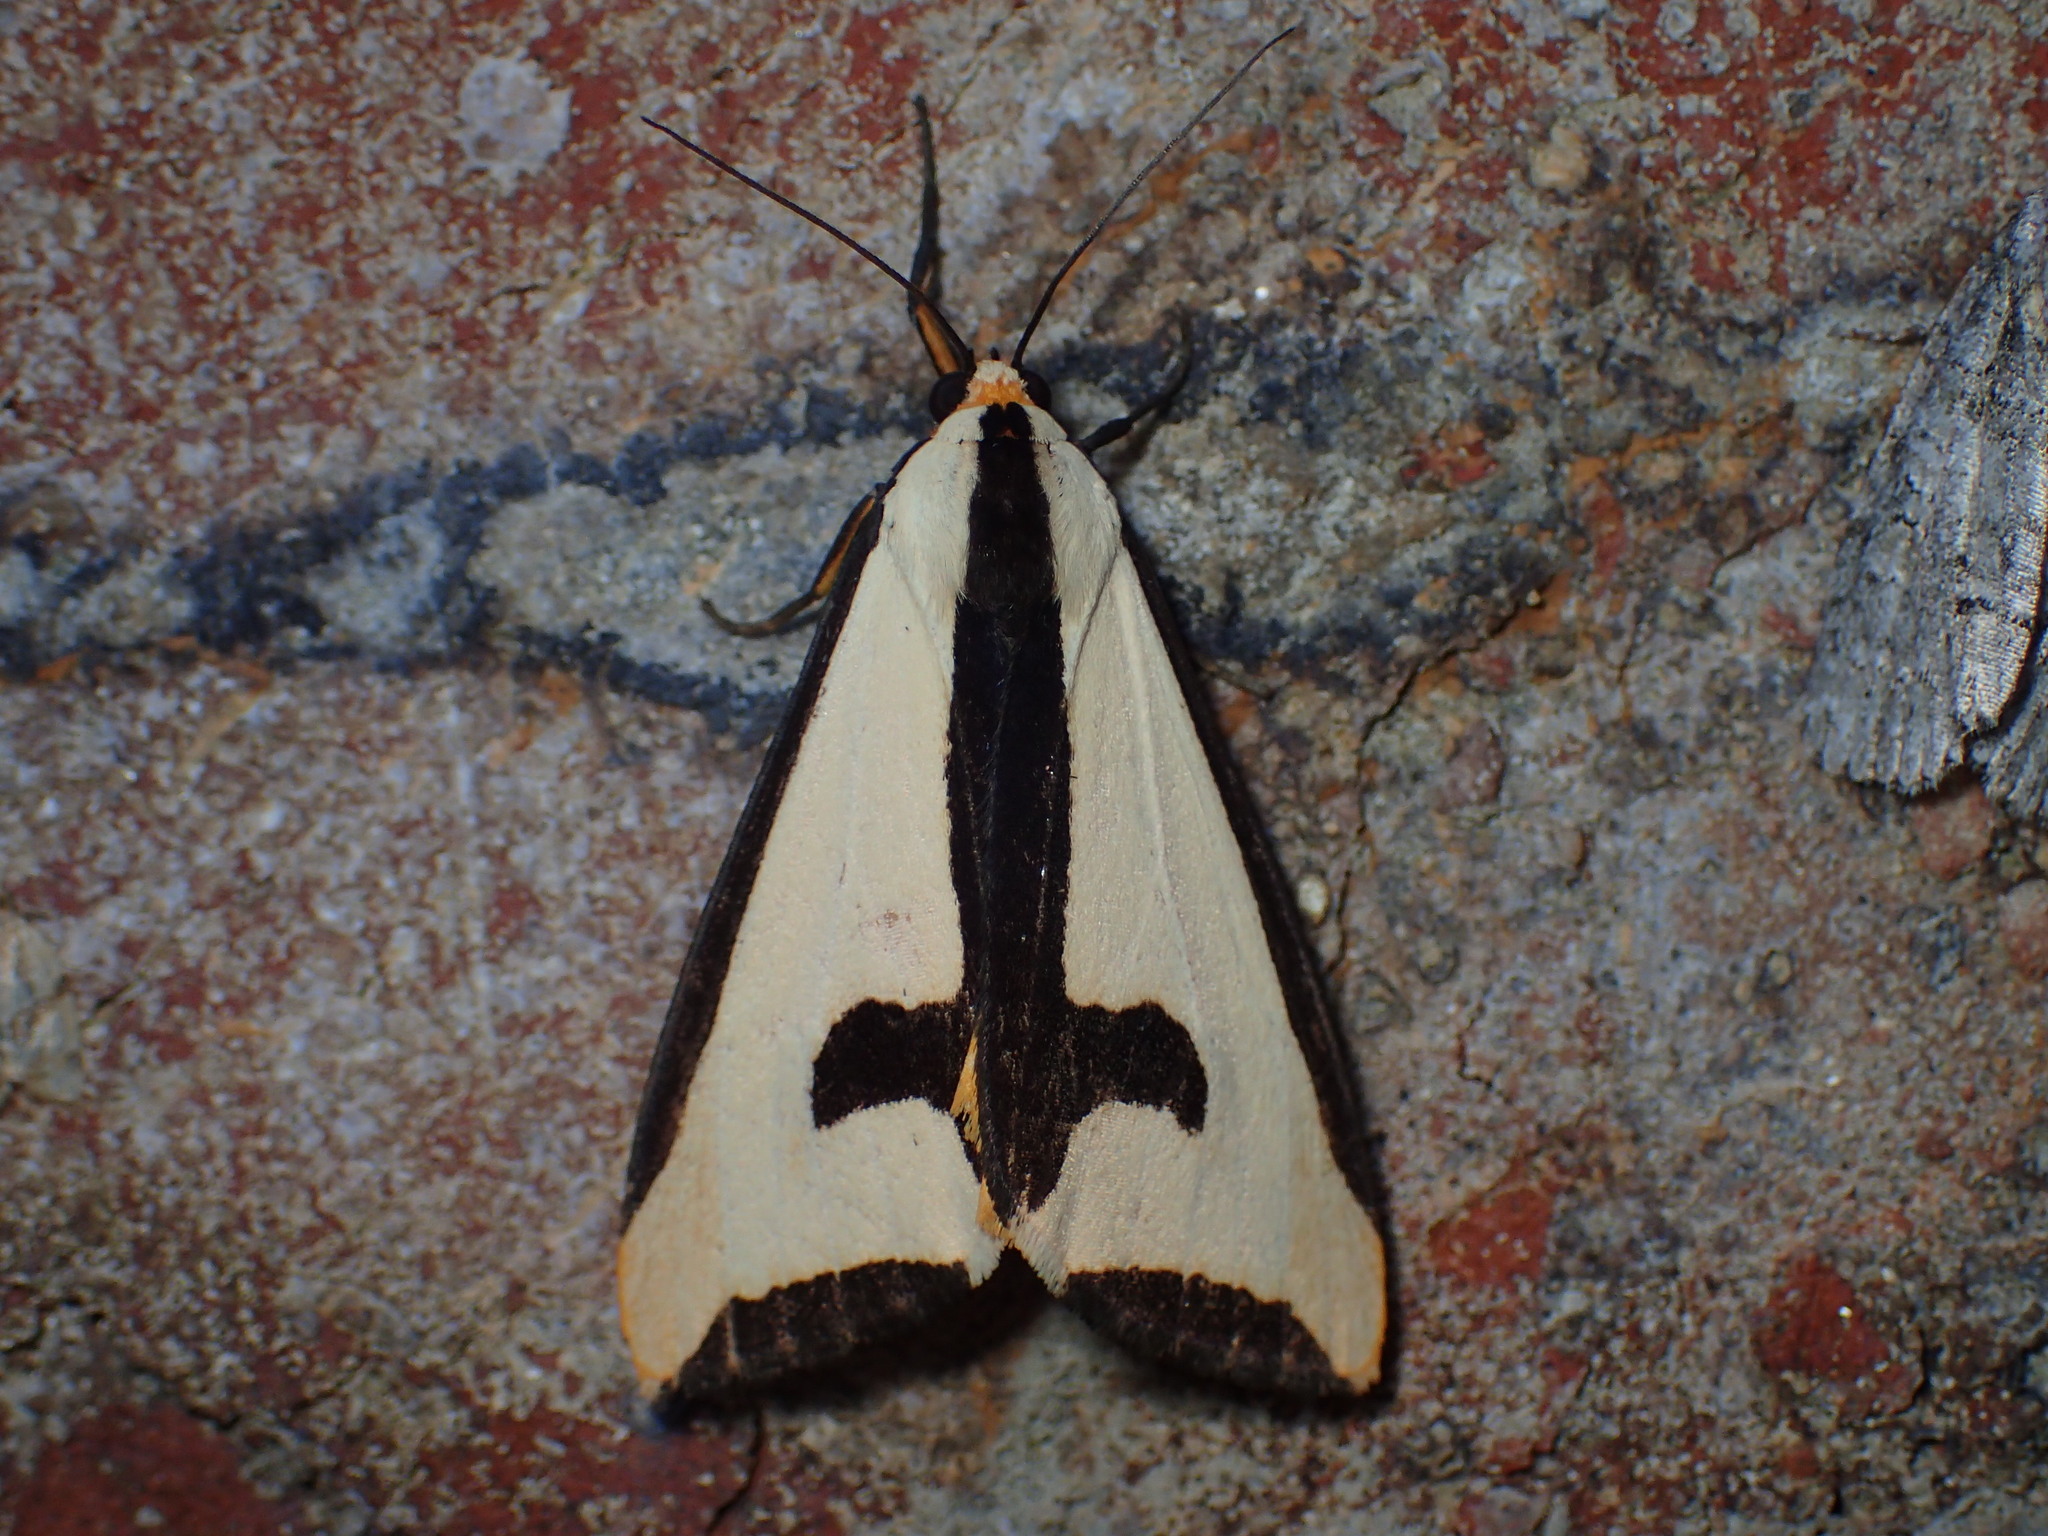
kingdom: Animalia
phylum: Arthropoda
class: Insecta
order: Lepidoptera
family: Erebidae
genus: Haploa
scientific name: Haploa clymene
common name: Clymene moth
